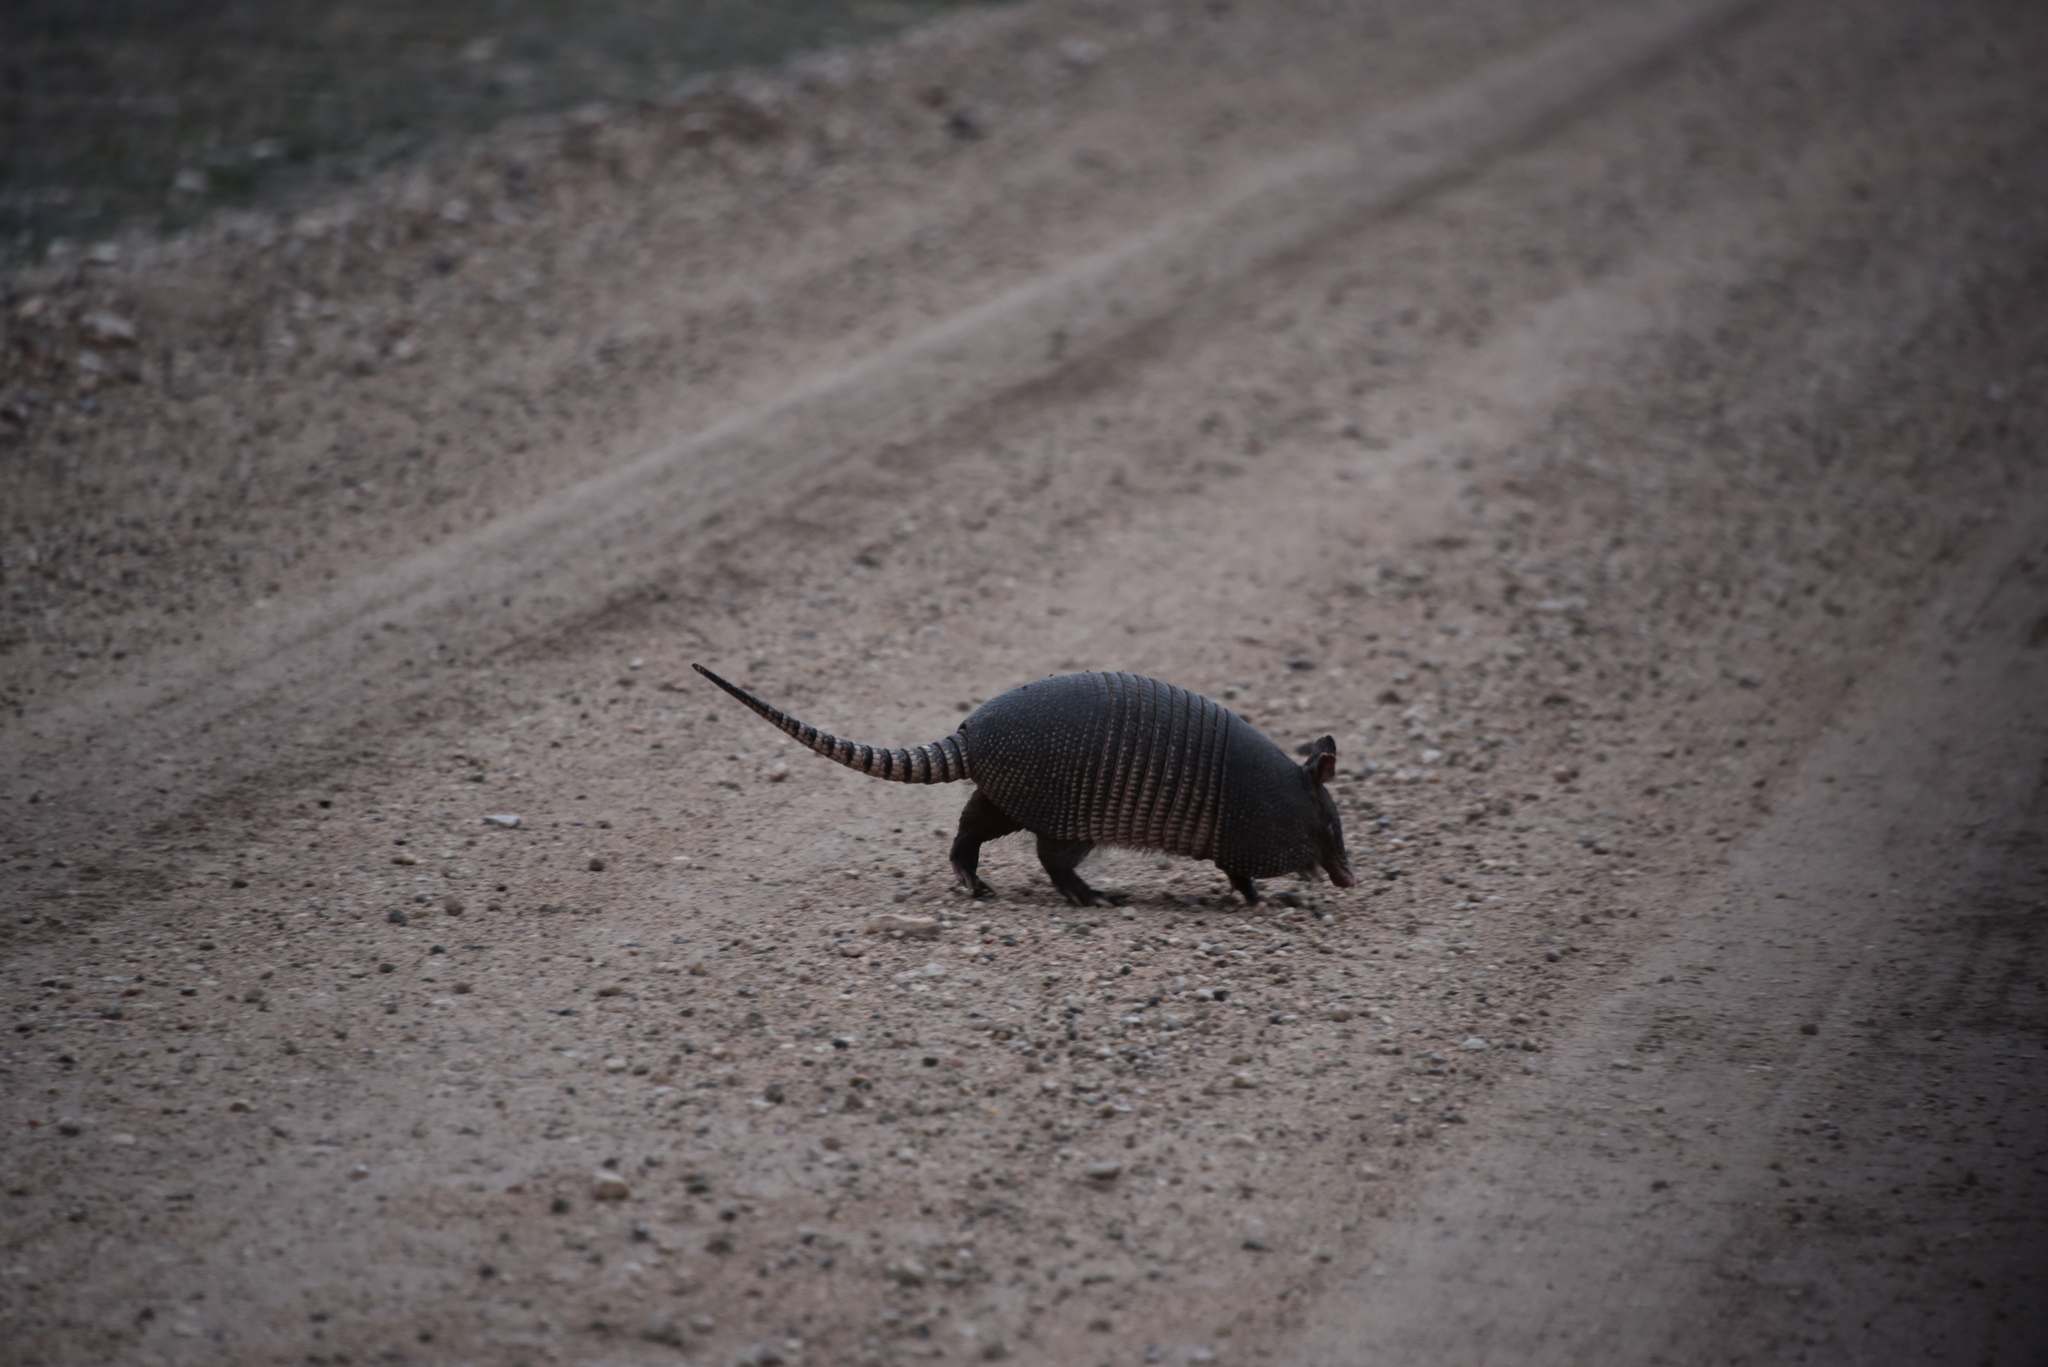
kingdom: Animalia
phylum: Chordata
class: Mammalia
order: Cingulata
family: Dasypodidae
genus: Dasypus
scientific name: Dasypus novemcinctus
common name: Nine-banded armadillo
